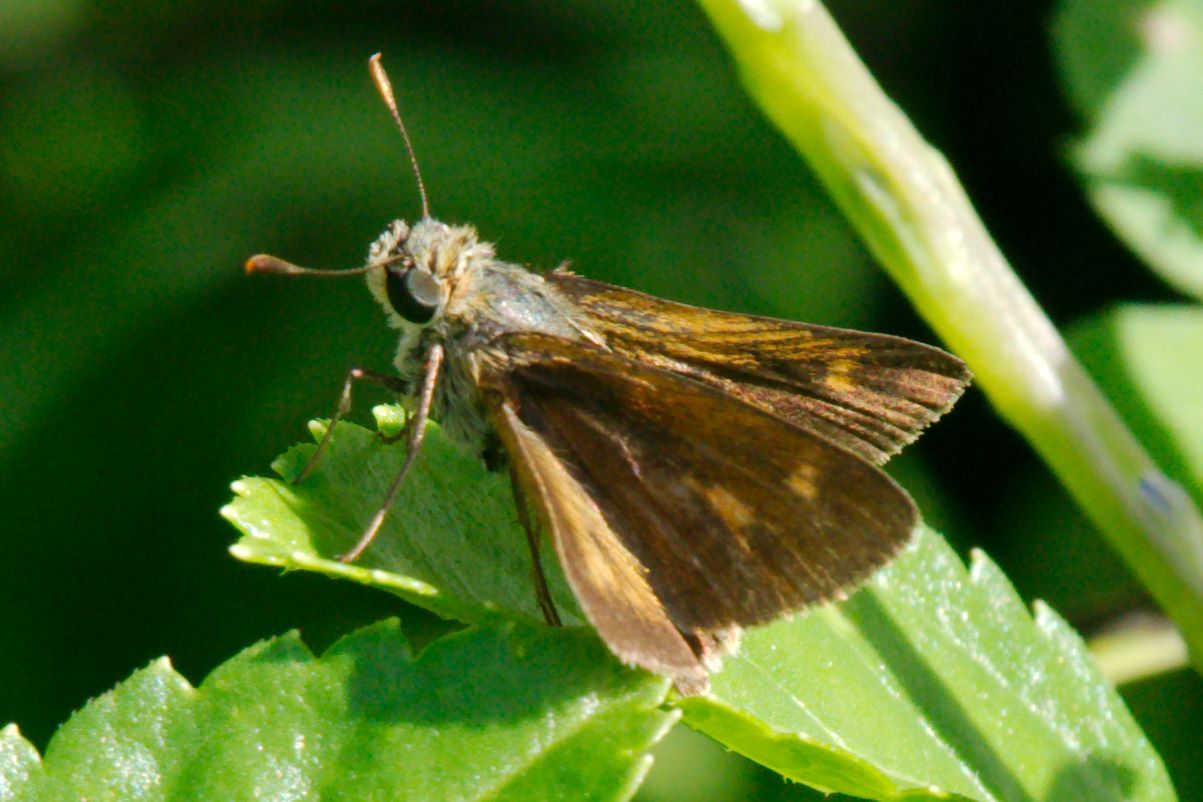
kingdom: Animalia
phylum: Arthropoda
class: Insecta
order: Lepidoptera
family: Hesperiidae
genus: Polites
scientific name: Polites otho
